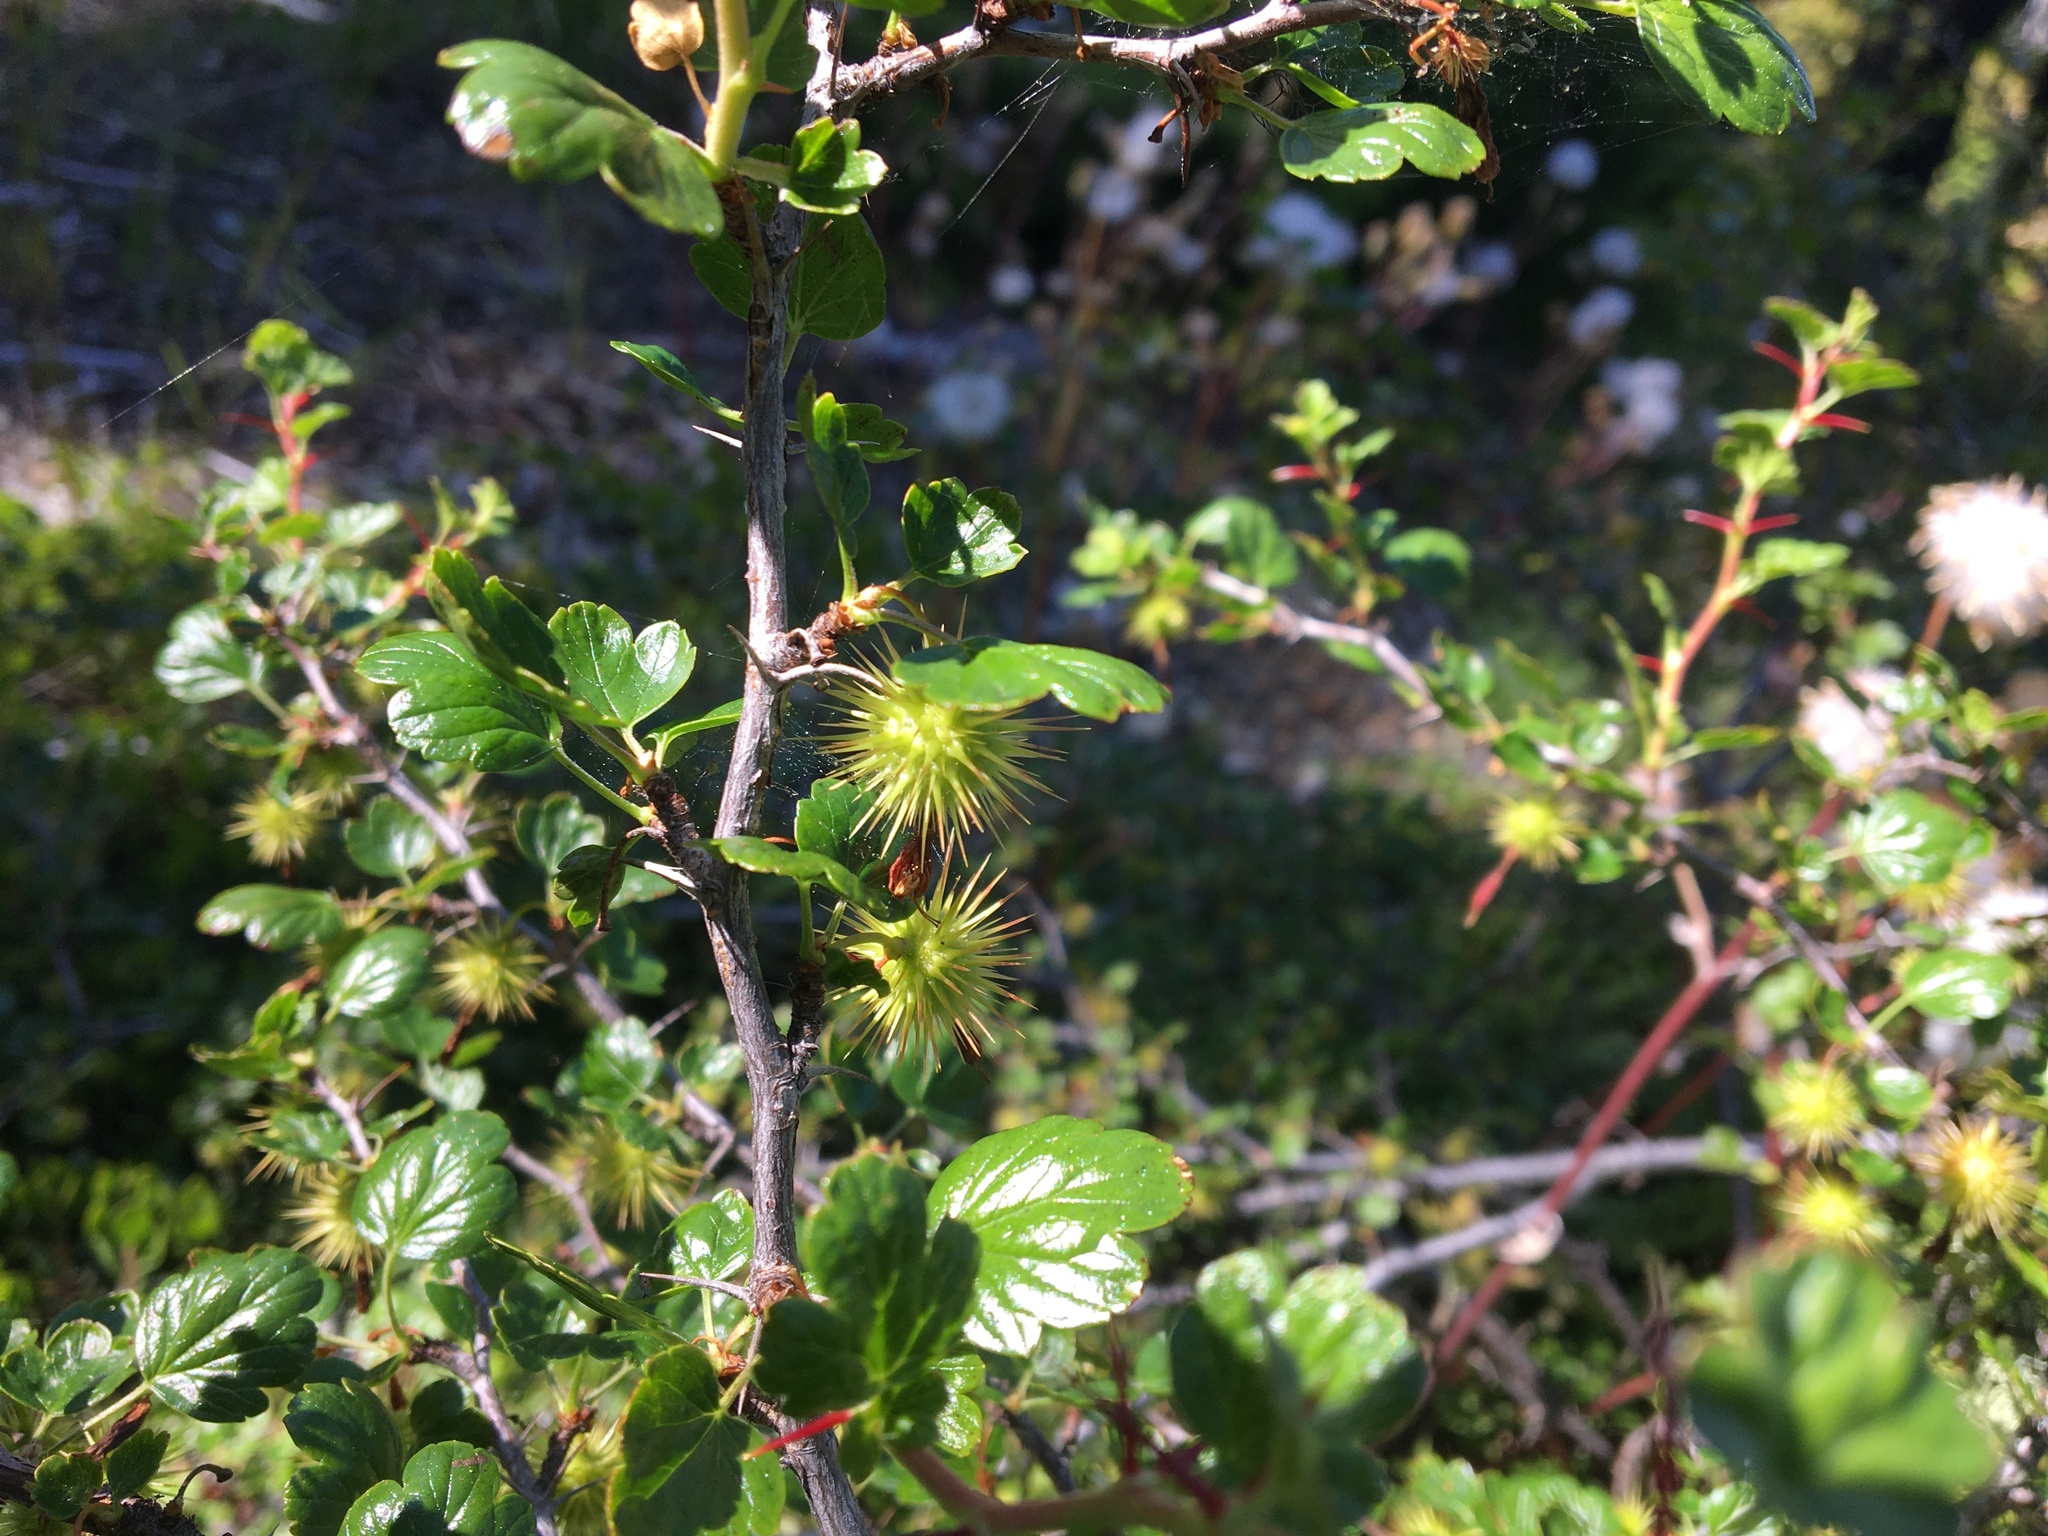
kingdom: Plantae
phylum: Tracheophyta
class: Magnoliopsida
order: Saxifragales
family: Grossulariaceae
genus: Ribes
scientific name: Ribes roezlii
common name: Sierra gooseberry
